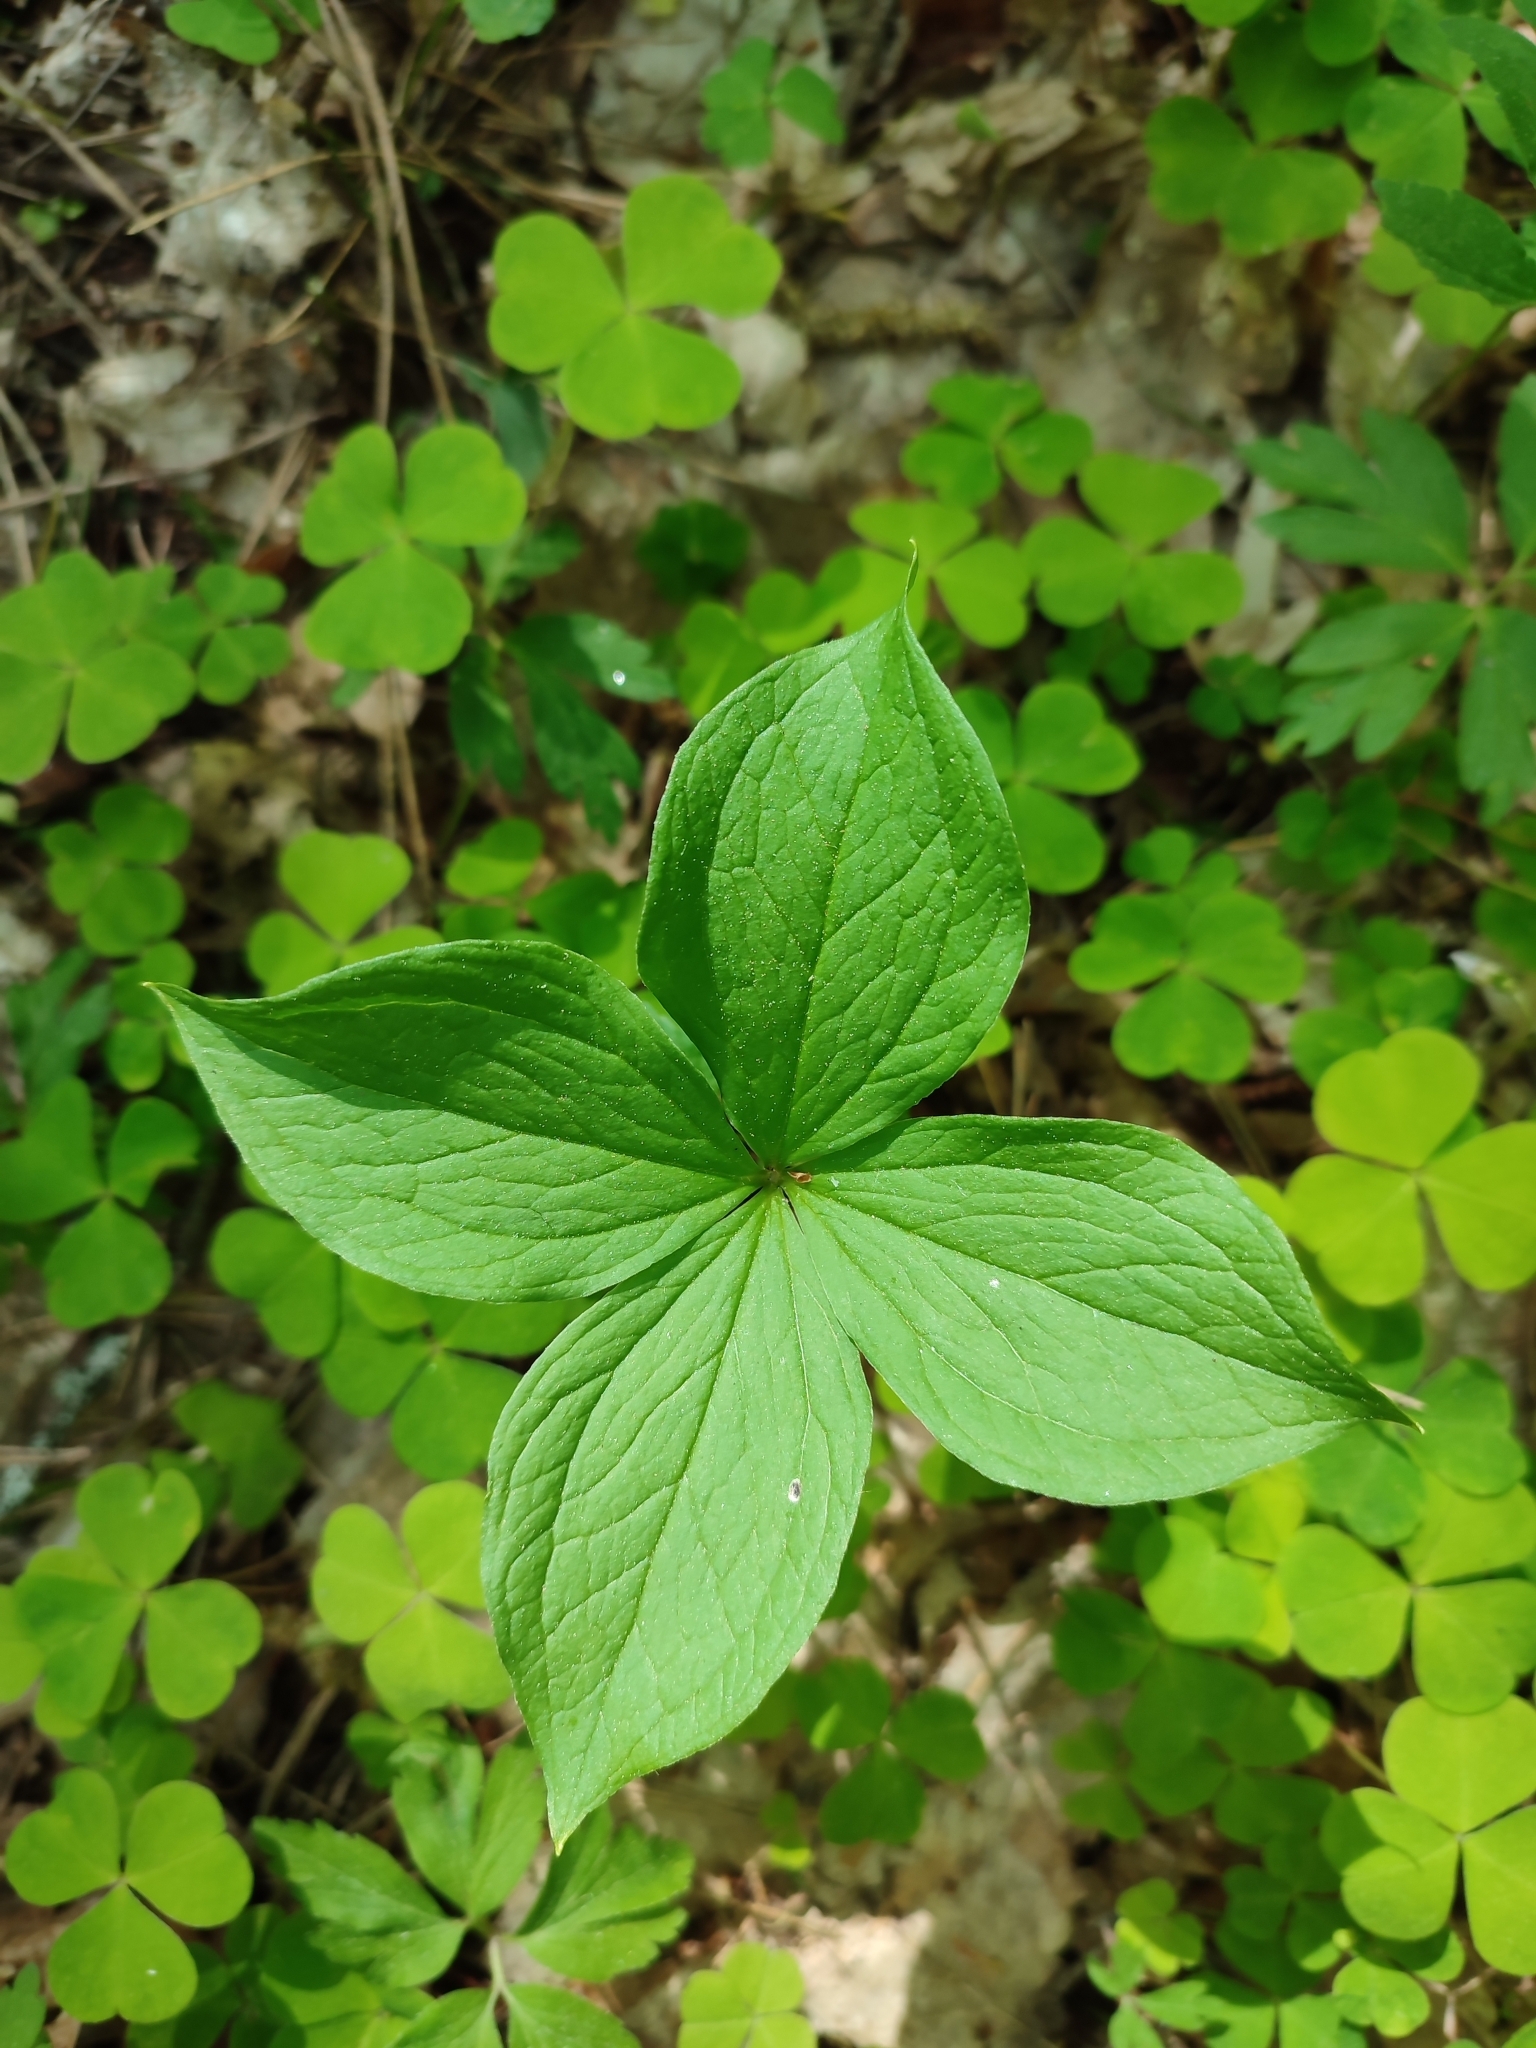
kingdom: Plantae
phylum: Tracheophyta
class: Liliopsida
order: Liliales
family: Melanthiaceae
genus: Paris
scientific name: Paris quadrifolia
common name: Herb-paris
